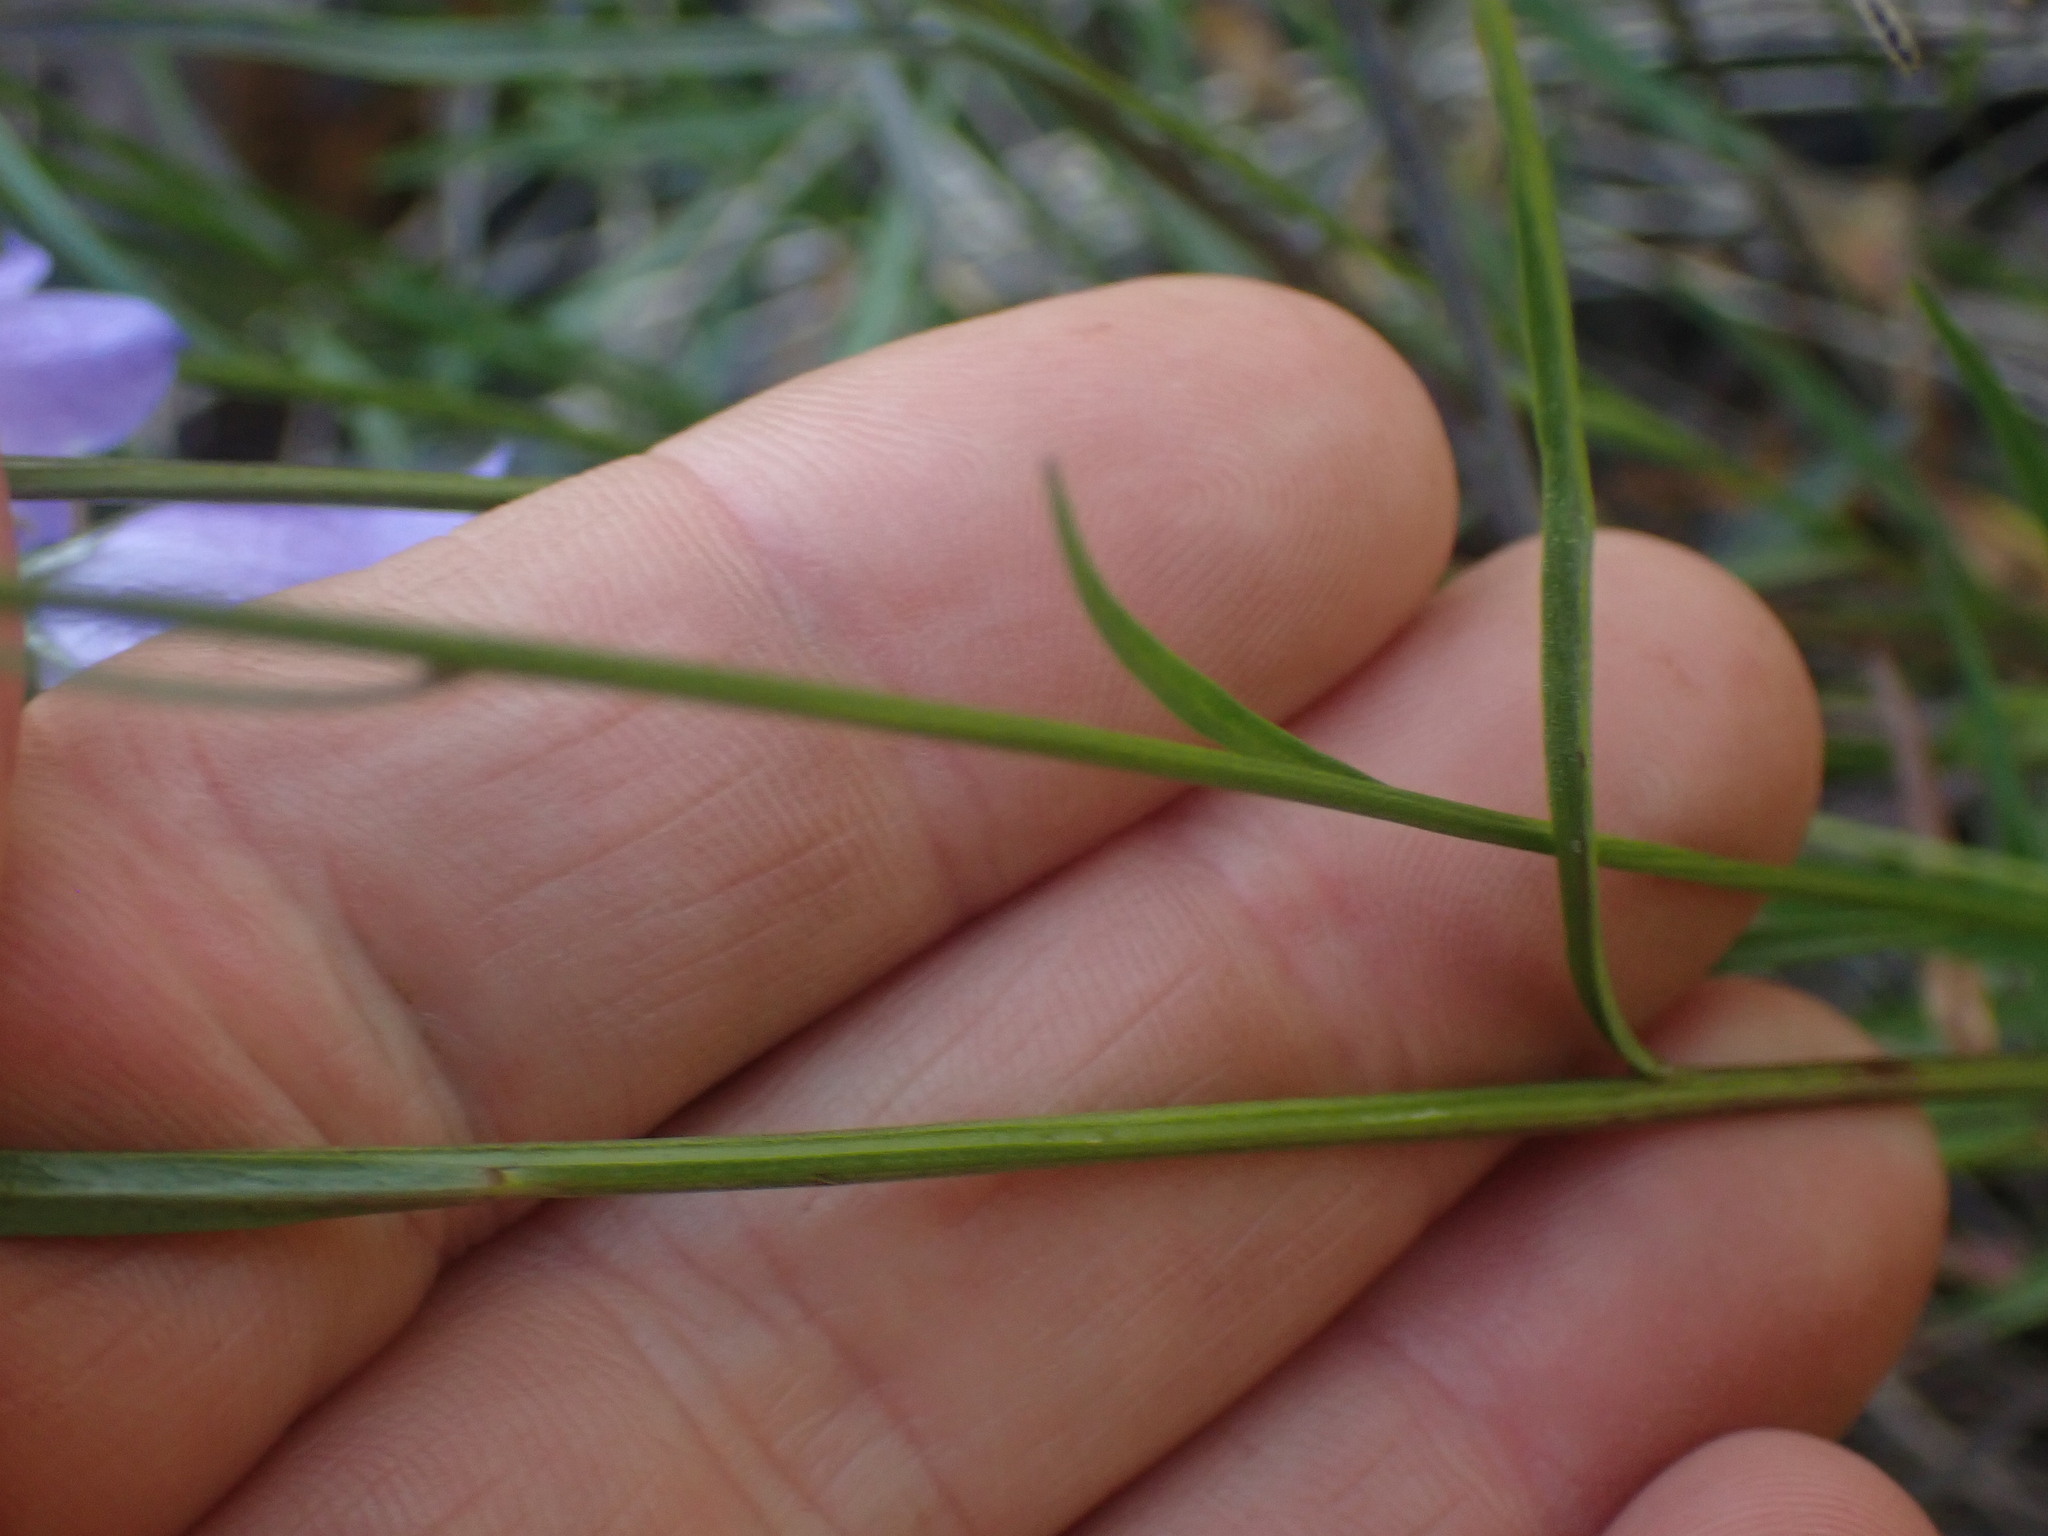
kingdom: Plantae
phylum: Tracheophyta
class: Magnoliopsida
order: Asterales
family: Campanulaceae
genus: Campanula
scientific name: Campanula alaskana
